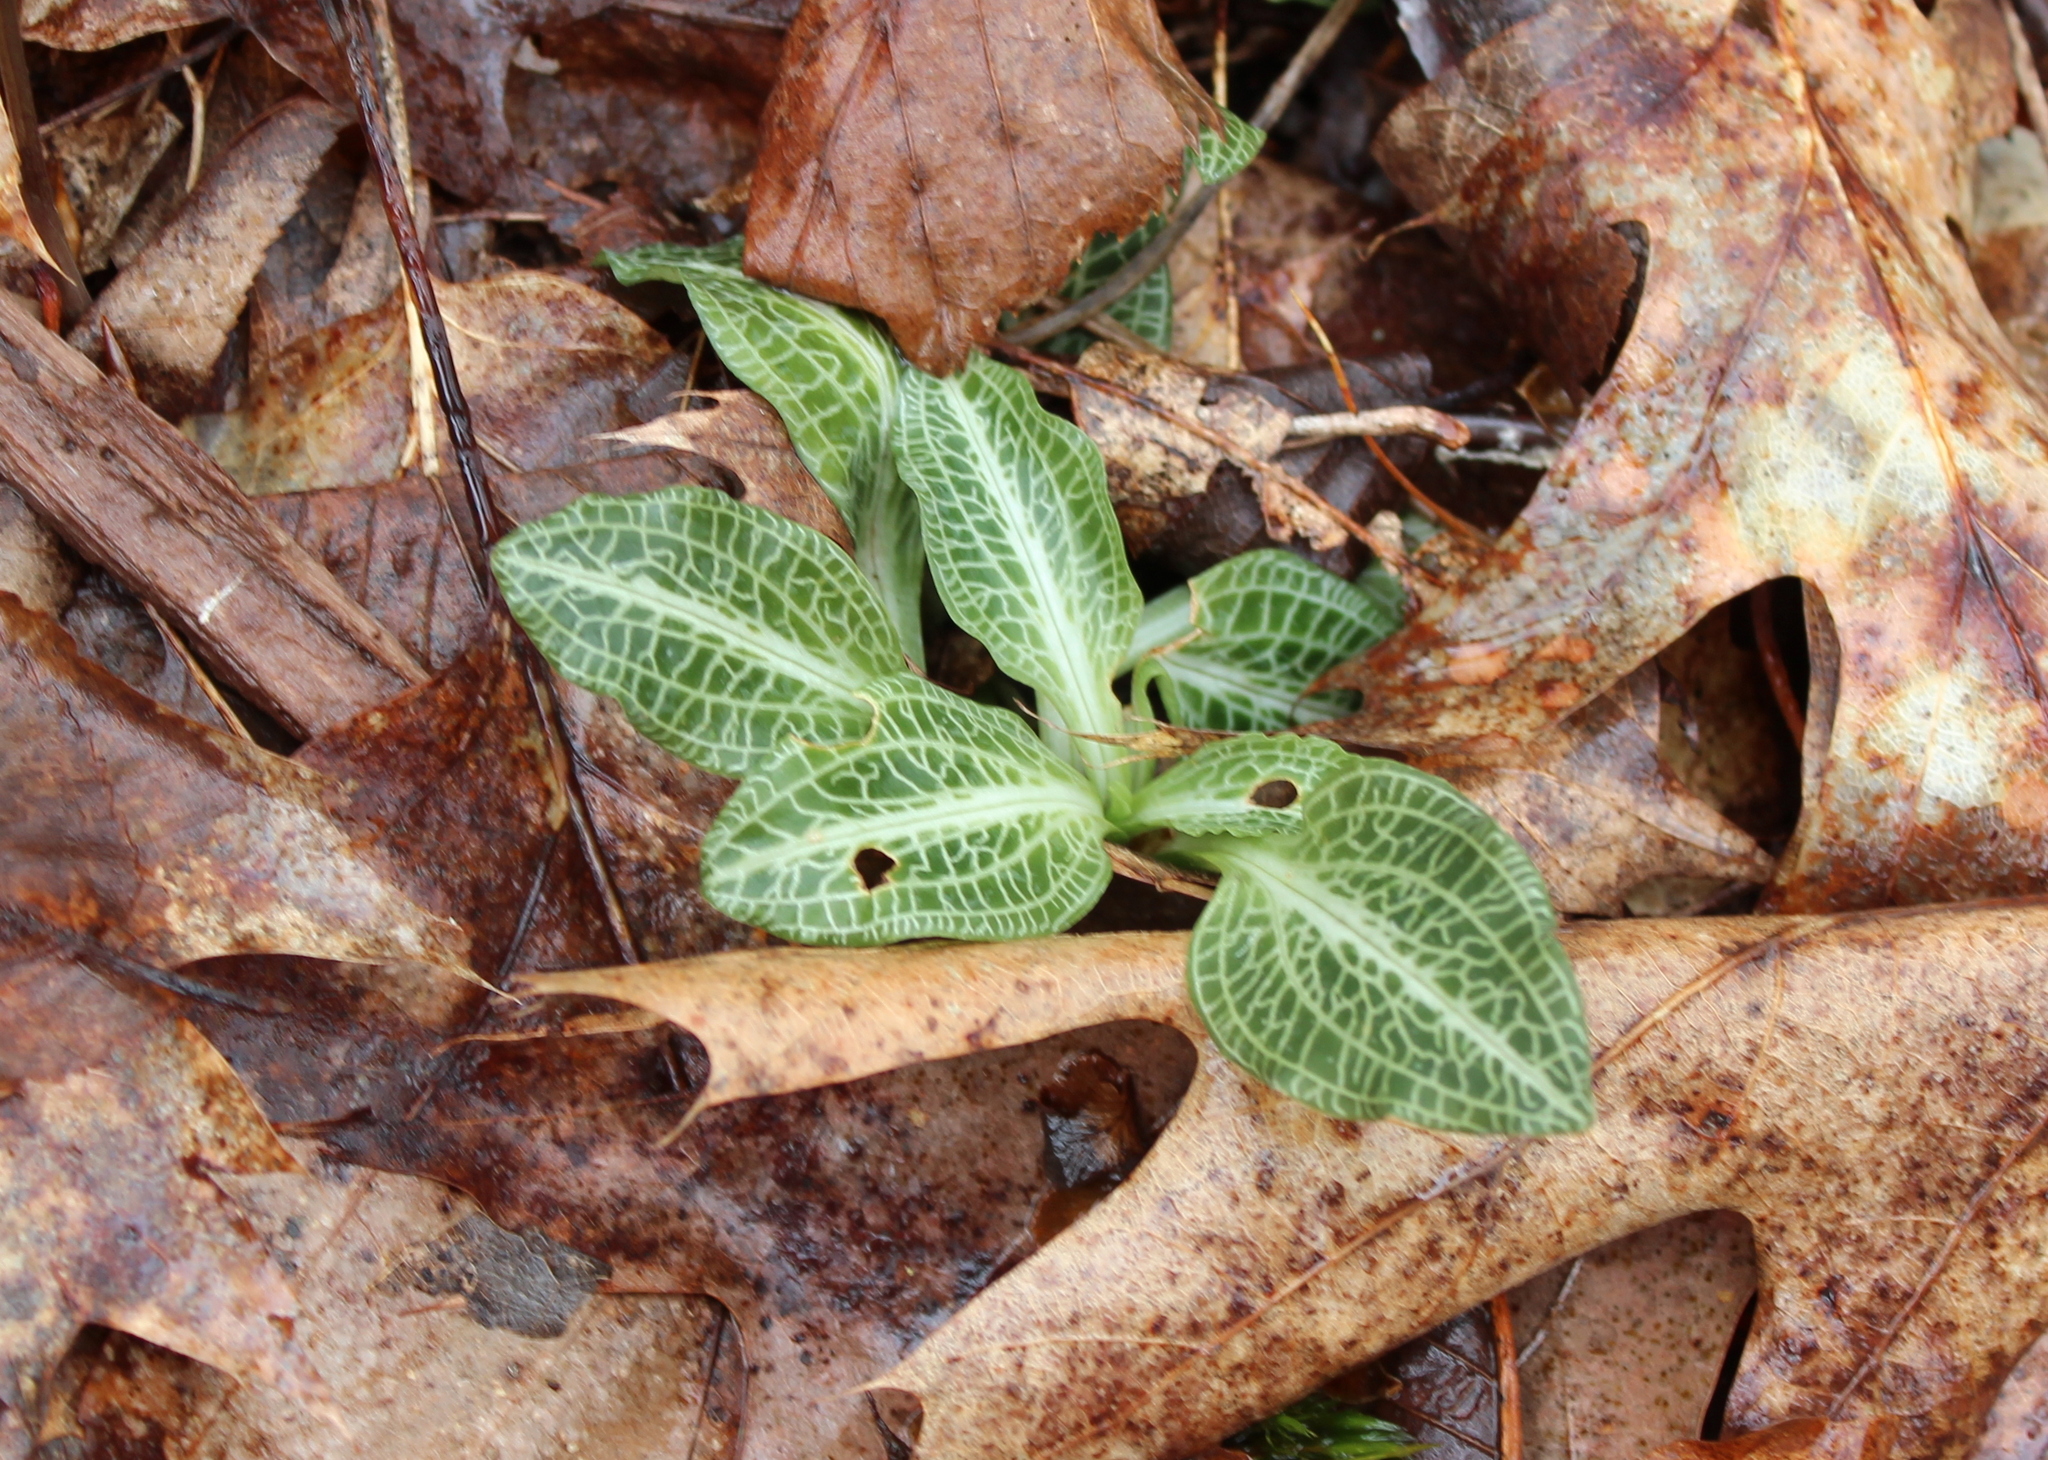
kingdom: Plantae
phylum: Tracheophyta
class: Liliopsida
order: Asparagales
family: Orchidaceae
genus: Goodyera
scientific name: Goodyera pubescens
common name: Downy rattlesnake-plantain
